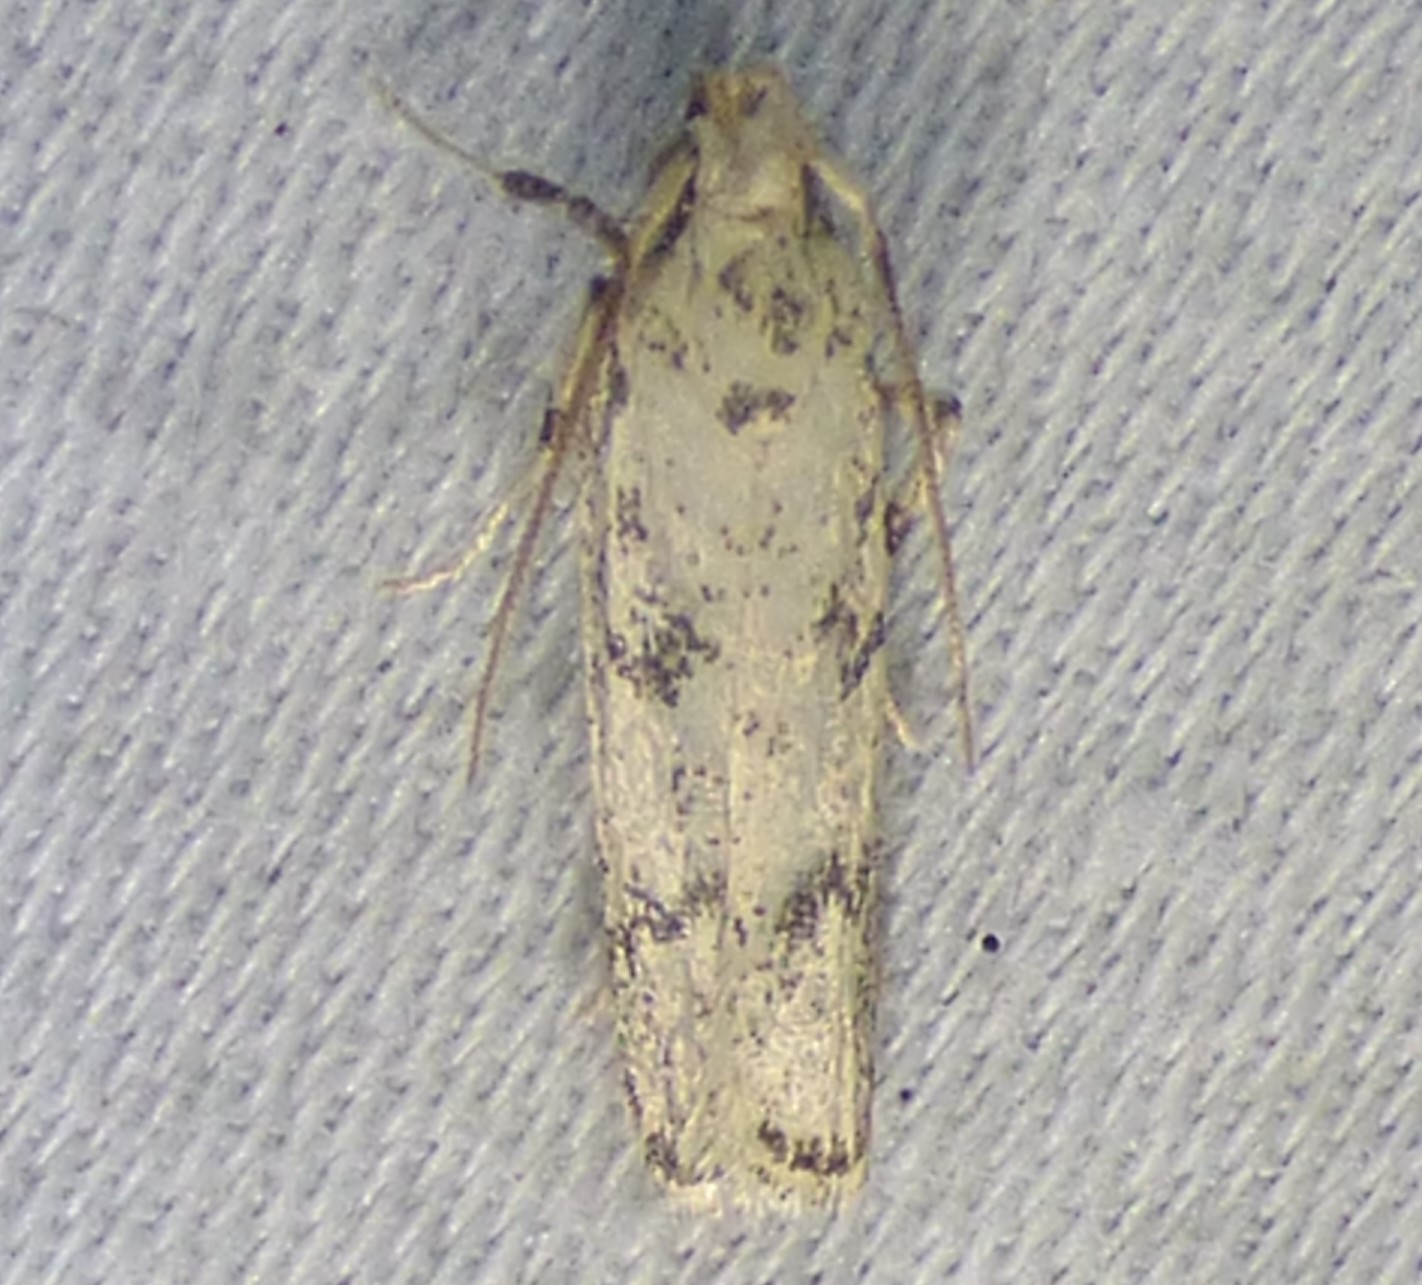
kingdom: Animalia
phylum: Arthropoda
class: Insecta
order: Lepidoptera
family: Autostichidae
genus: Glyphidocera
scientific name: Glyphidocera lactiflosella
